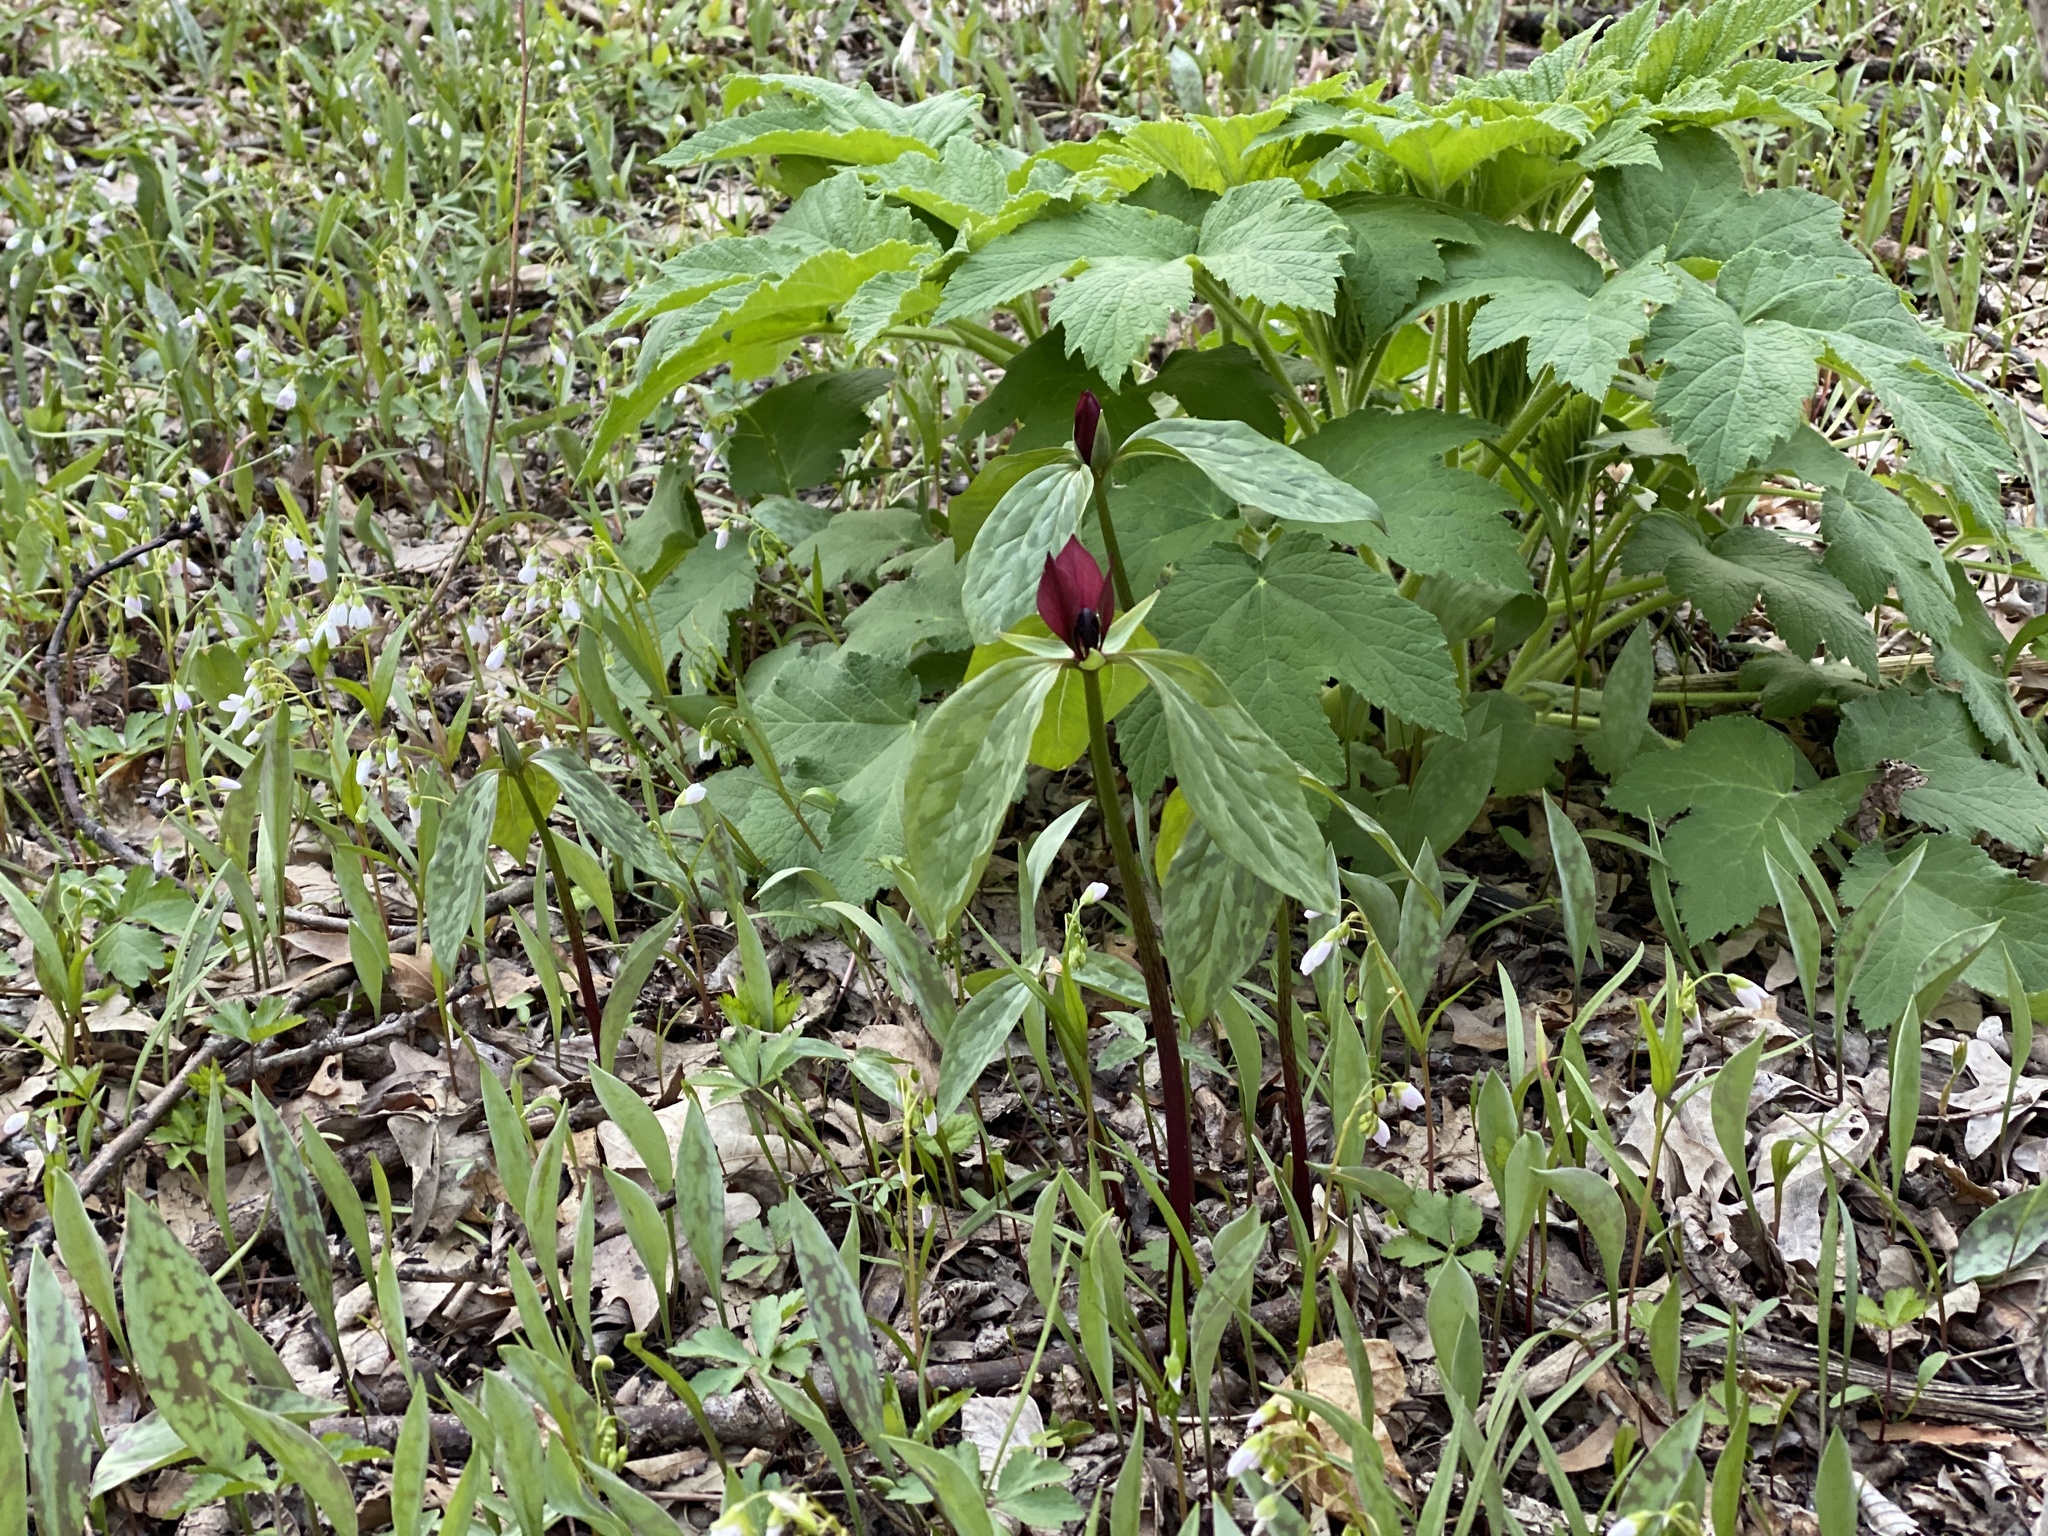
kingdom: Plantae
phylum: Tracheophyta
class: Liliopsida
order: Liliales
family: Melanthiaceae
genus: Trillium
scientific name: Trillium recurvatum
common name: Bloody butcher
